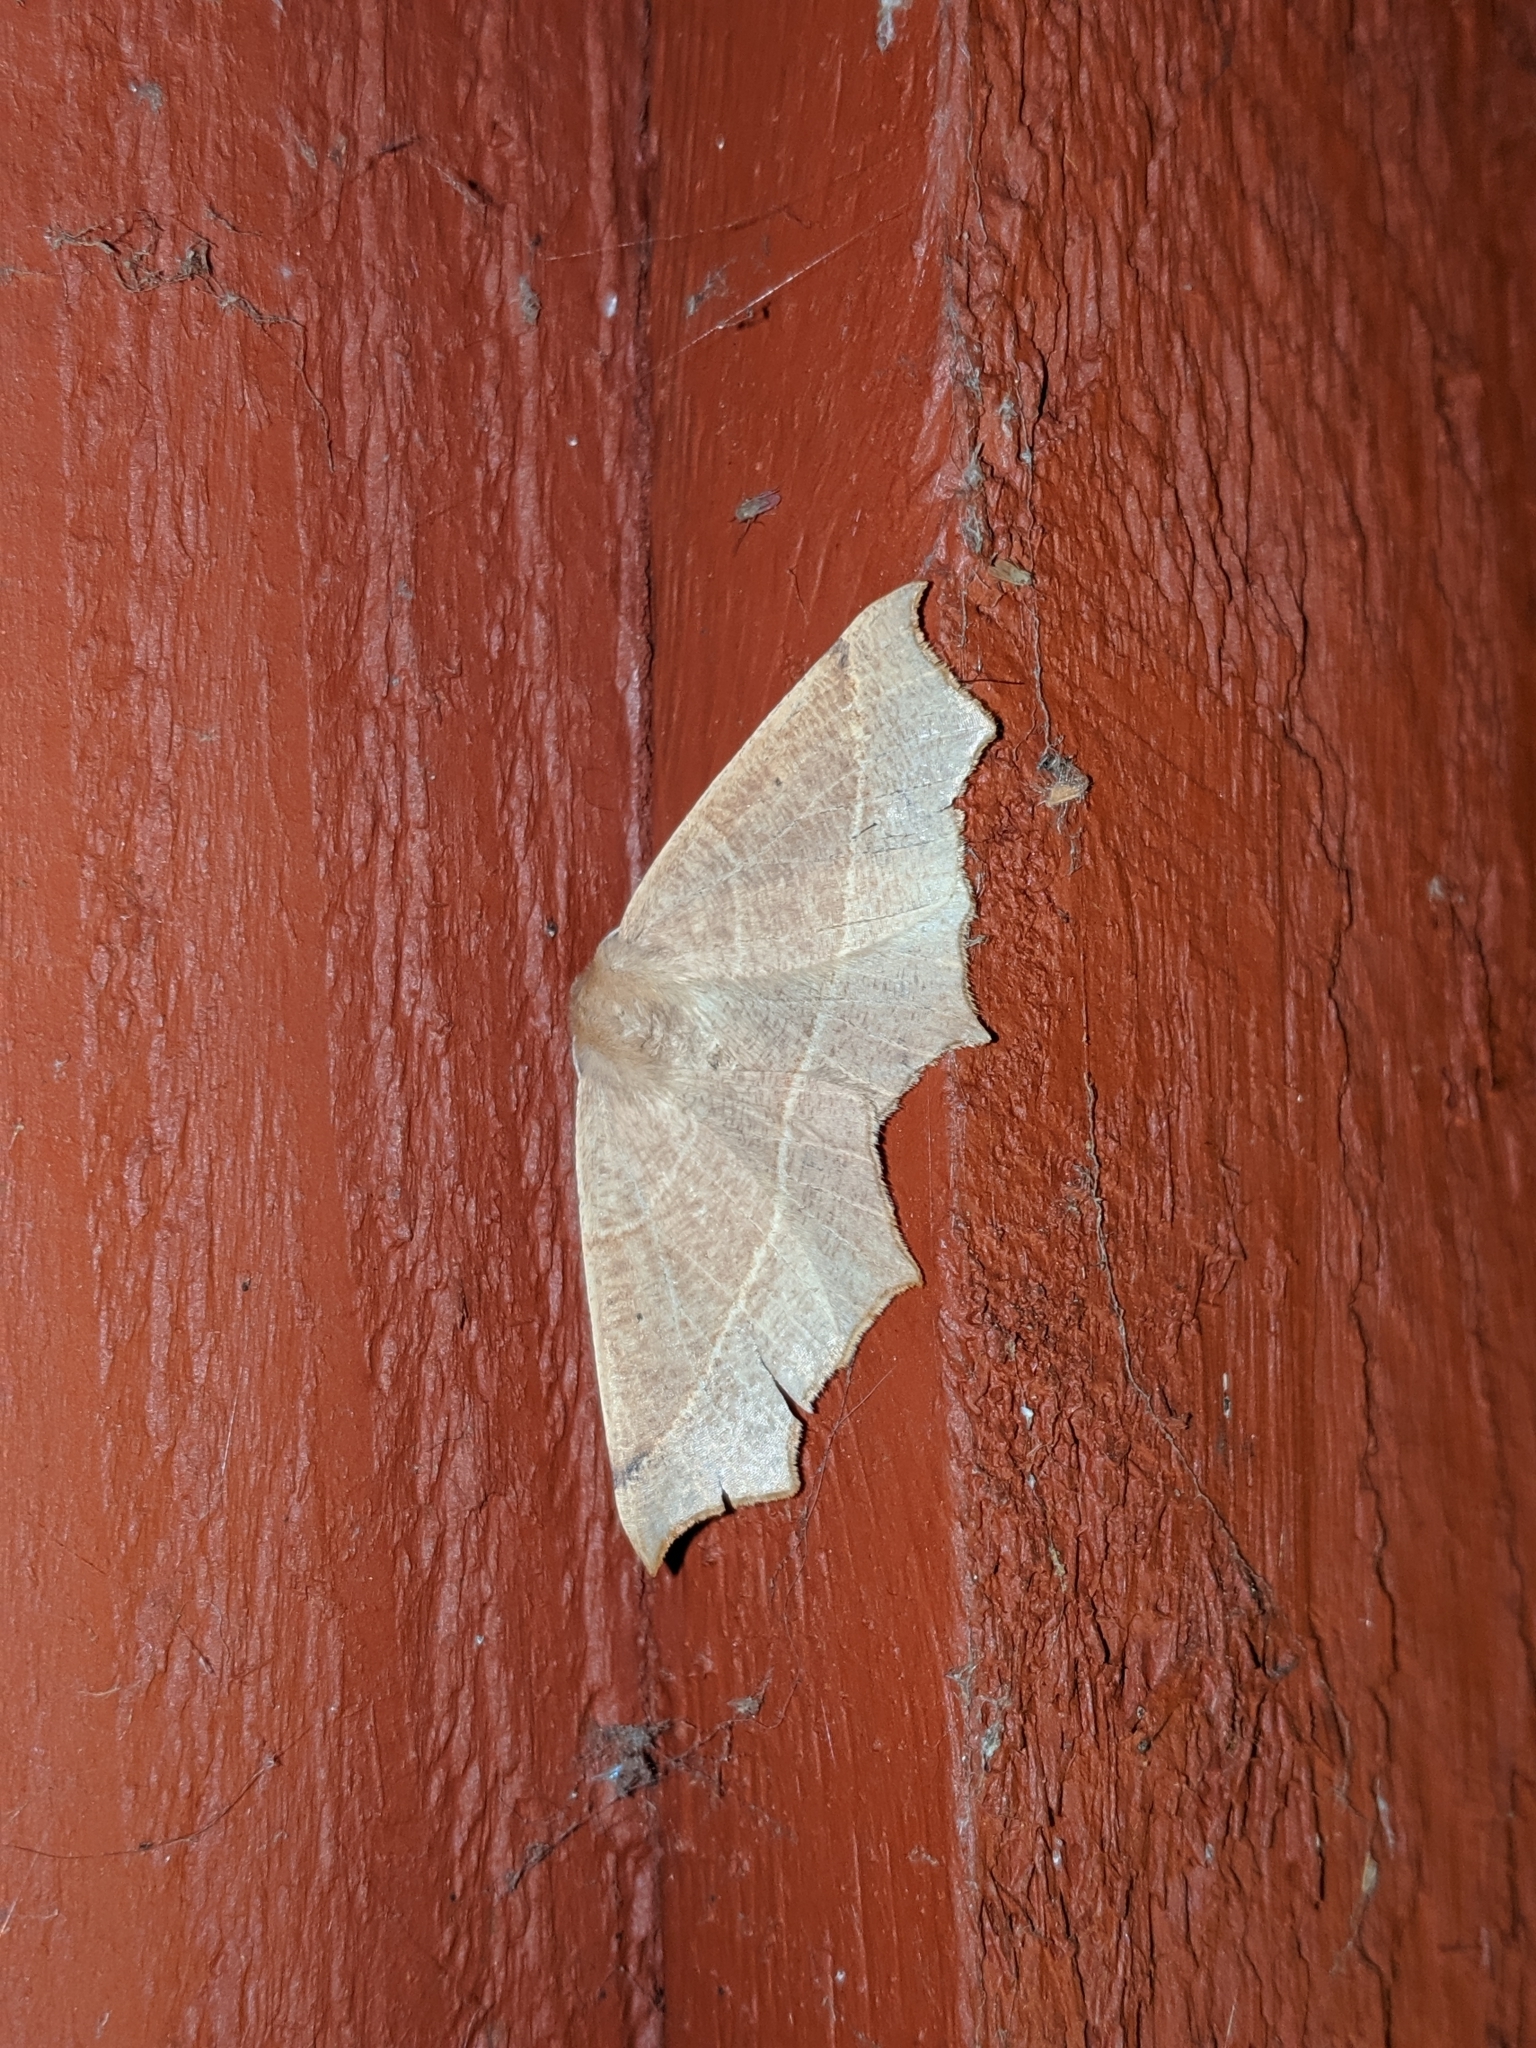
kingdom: Animalia
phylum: Arthropoda
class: Insecta
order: Lepidoptera
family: Geometridae
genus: Tetracis
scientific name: Tetracis cervinaria
